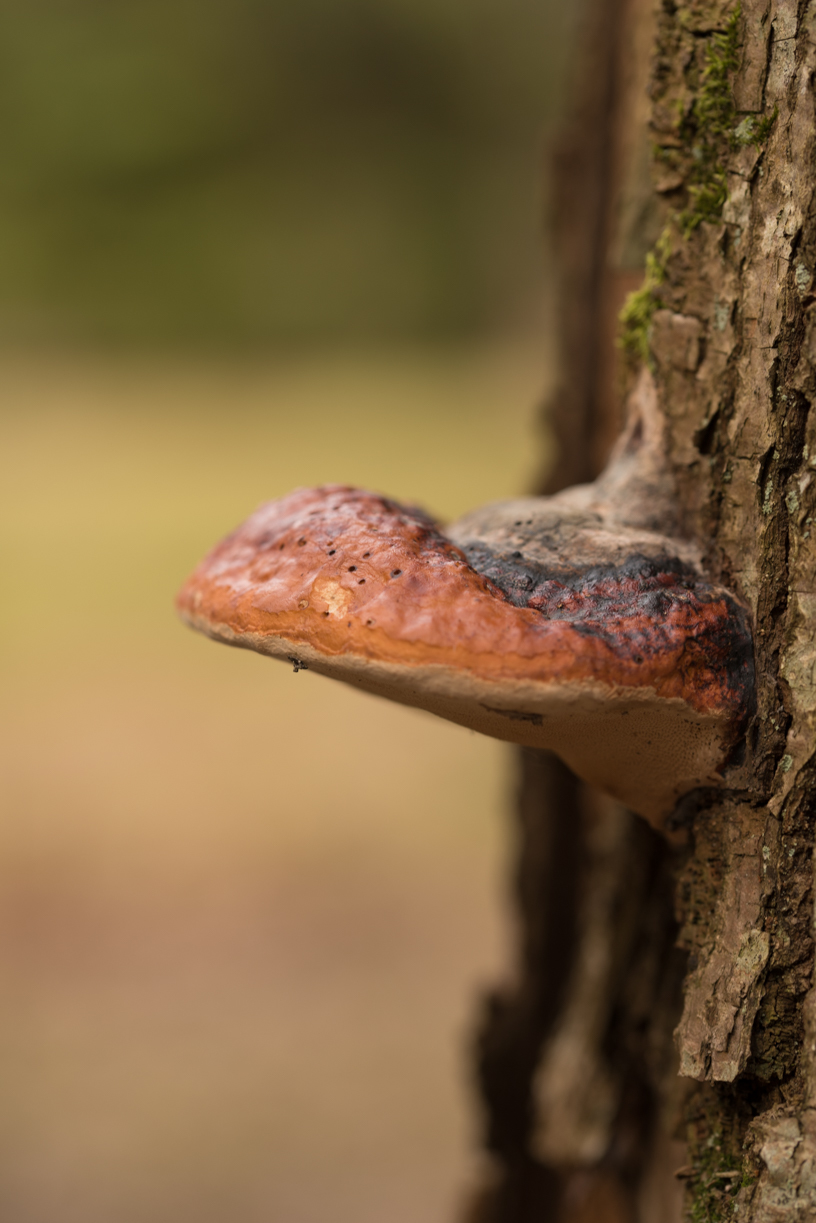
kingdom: Fungi
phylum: Basidiomycota
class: Agaricomycetes
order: Polyporales
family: Fomitopsidaceae
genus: Fomitopsis
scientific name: Fomitopsis pinicola
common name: Red-belted bracket
